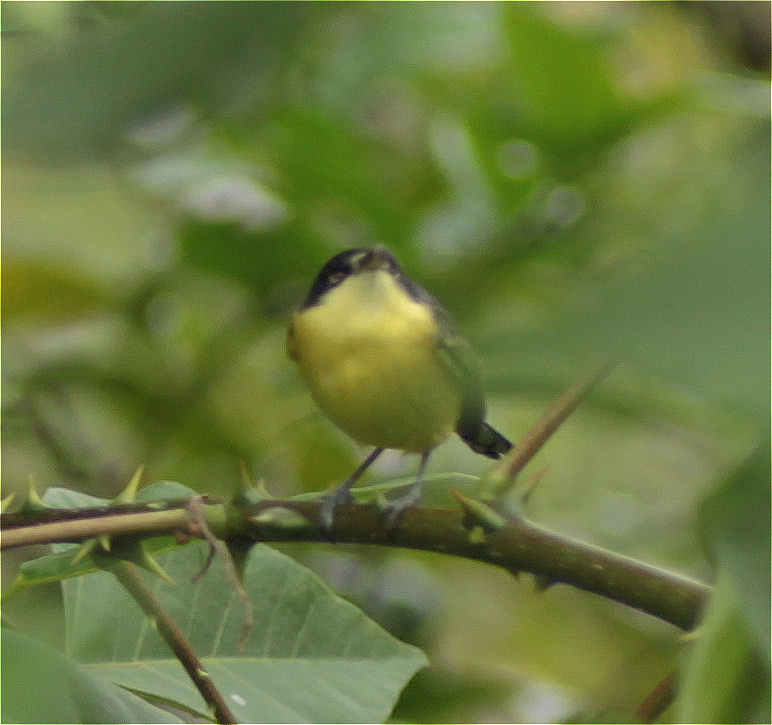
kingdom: Animalia
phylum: Chordata
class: Aves
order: Passeriformes
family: Tyrannidae
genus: Todirostrum
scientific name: Todirostrum cinereum
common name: Common tody-flycatcher
